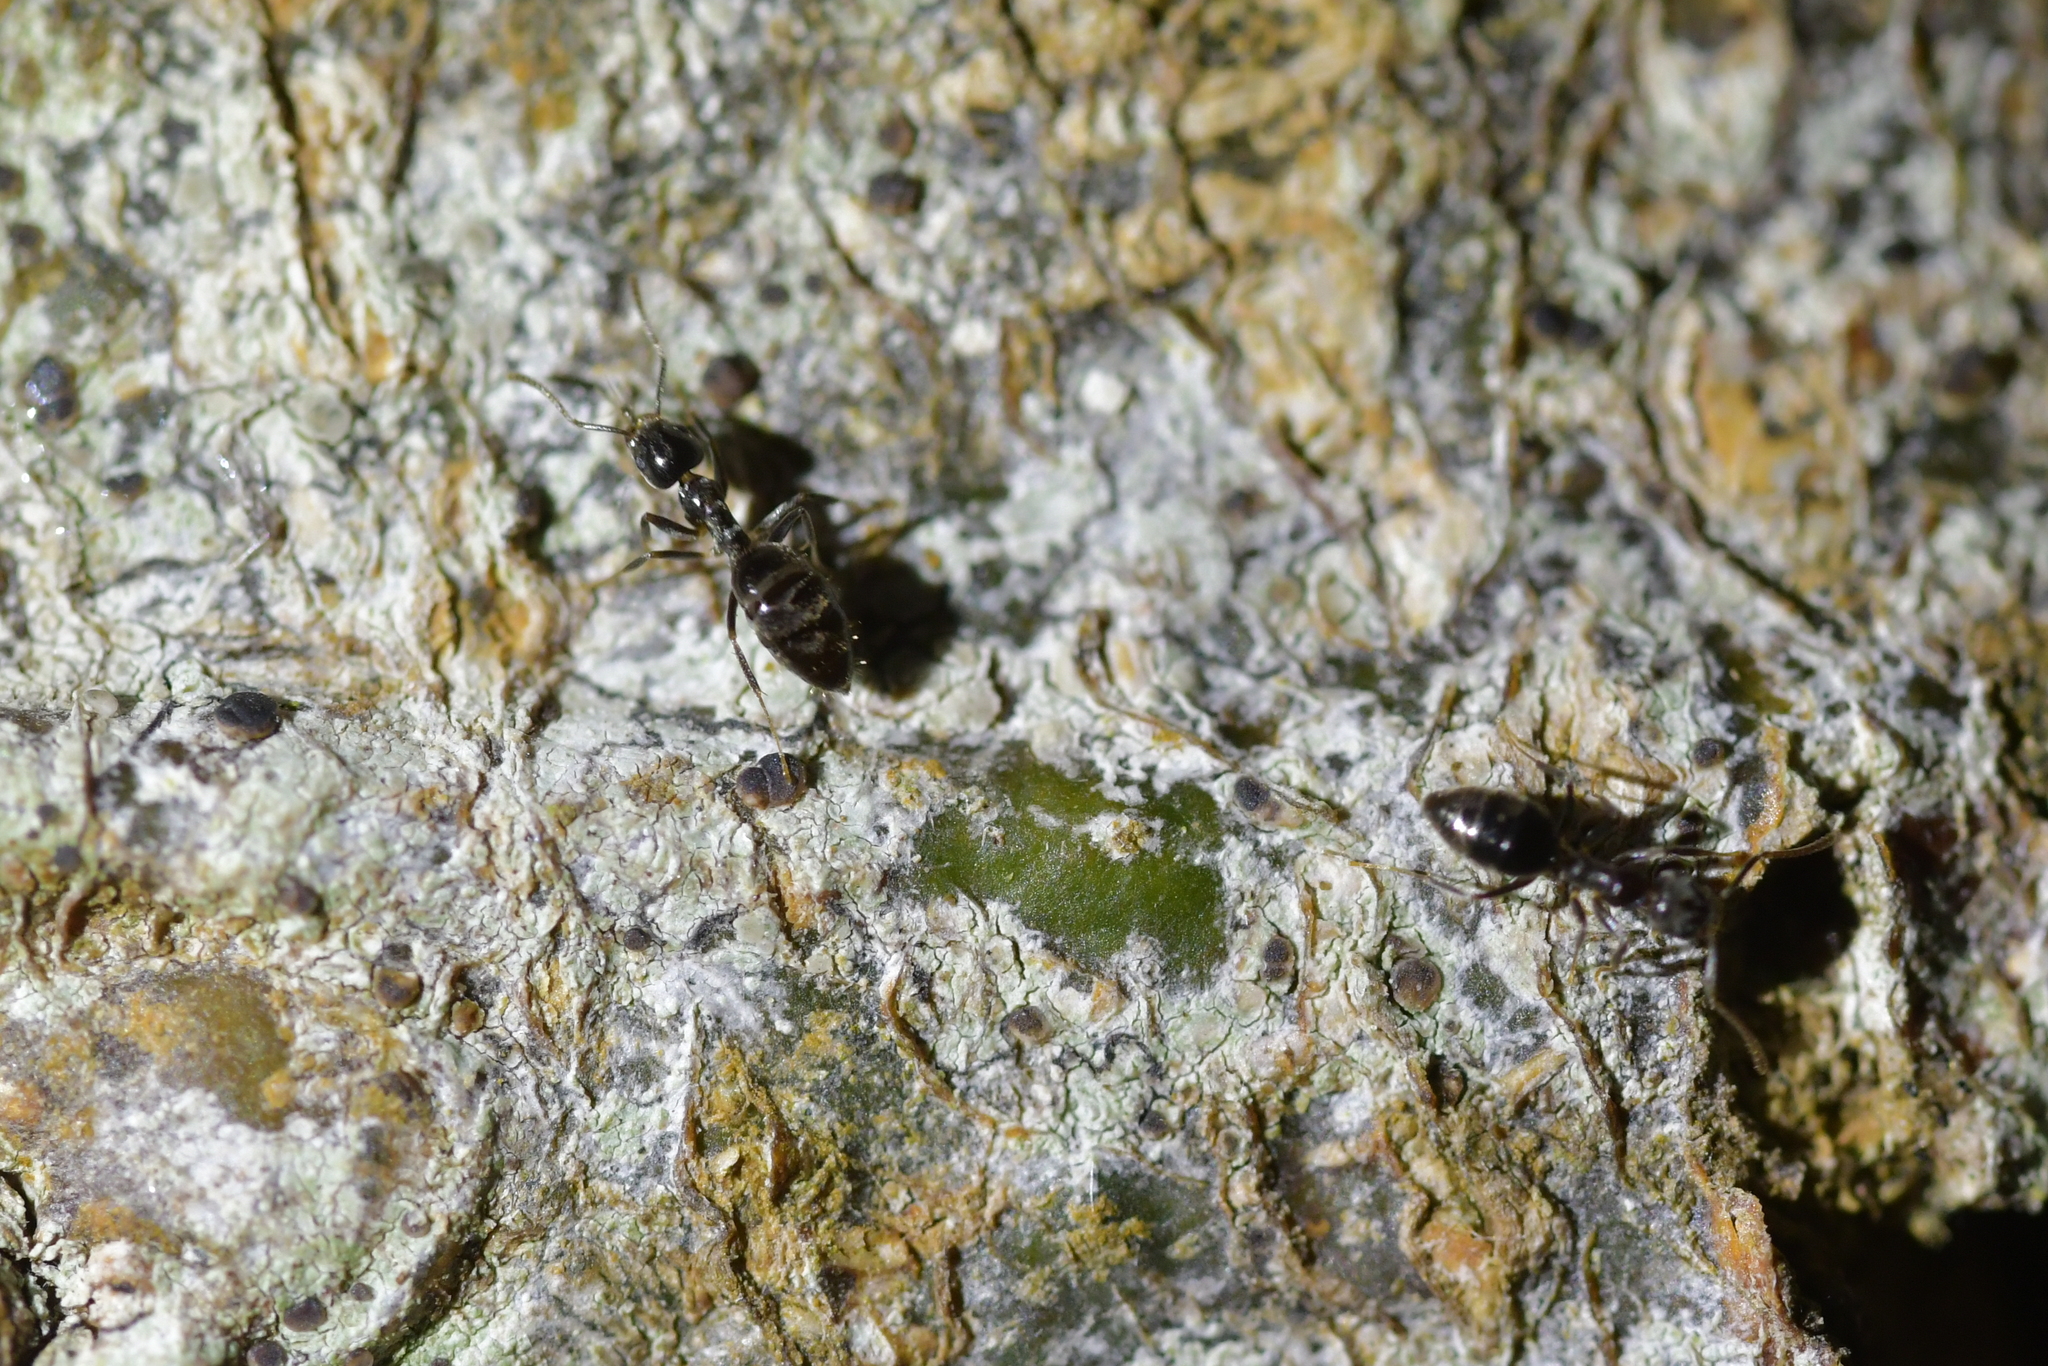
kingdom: Animalia
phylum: Arthropoda
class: Insecta
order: Hymenoptera
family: Formicidae
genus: Technomyrmex
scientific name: Technomyrmex jocosus
